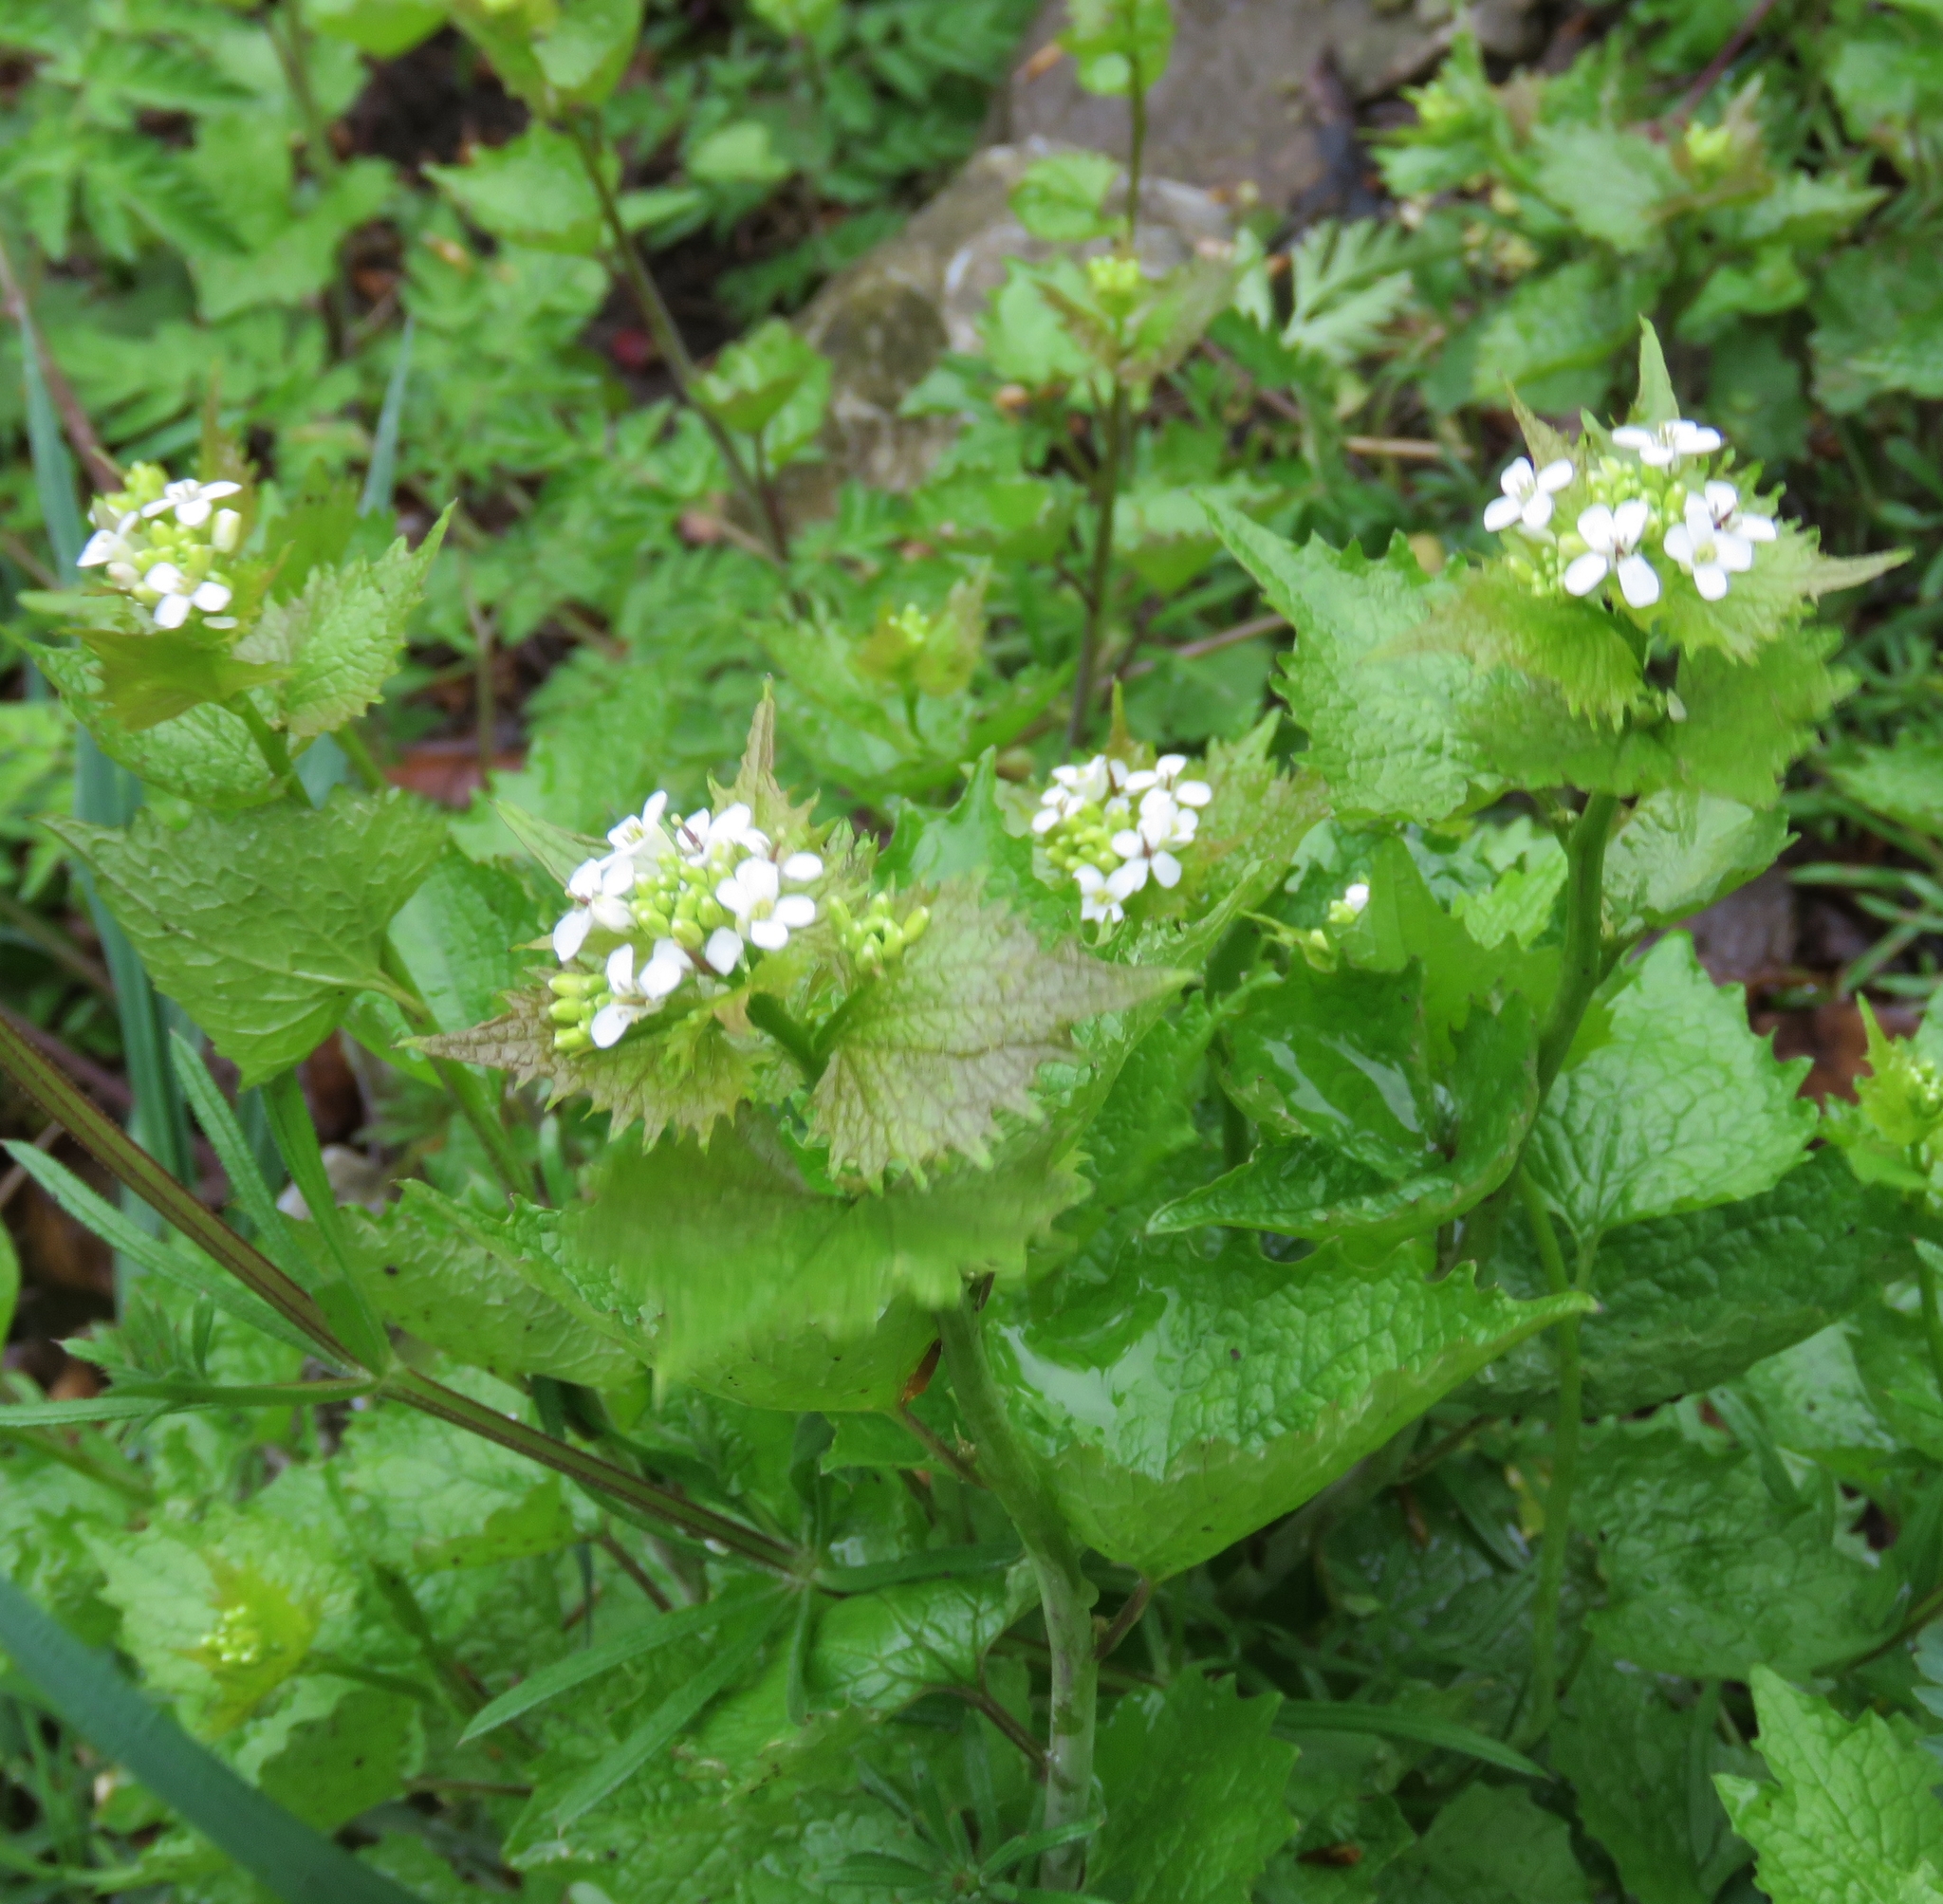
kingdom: Plantae
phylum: Tracheophyta
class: Magnoliopsida
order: Brassicales
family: Brassicaceae
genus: Alliaria
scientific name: Alliaria petiolata
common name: Garlic mustard
